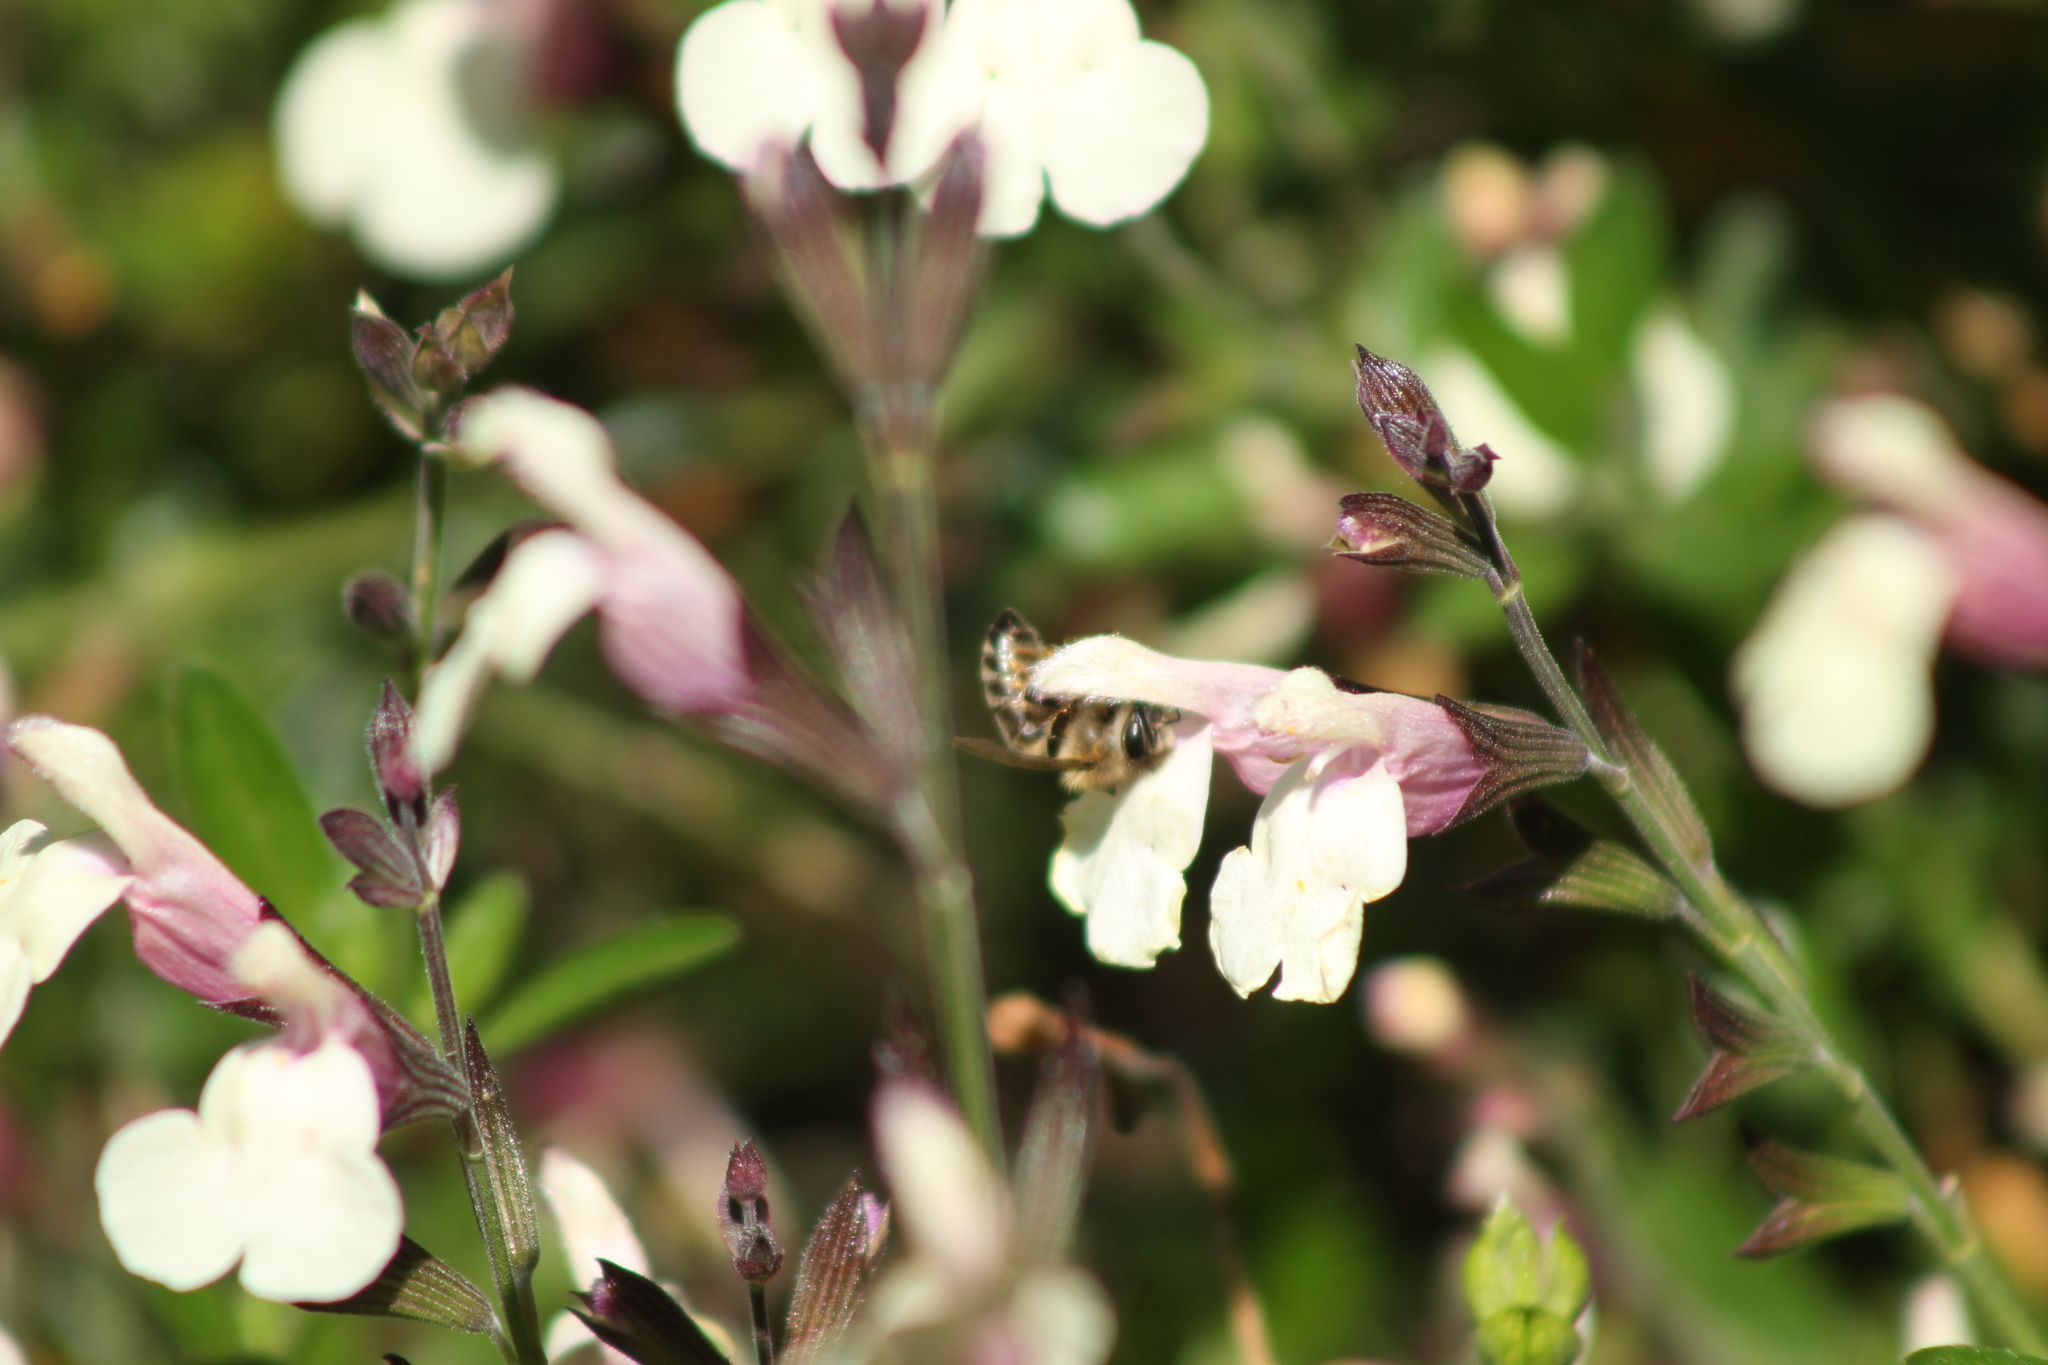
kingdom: Animalia
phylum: Arthropoda
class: Insecta
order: Hymenoptera
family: Apidae
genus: Apis
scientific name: Apis mellifera
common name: Honey bee
